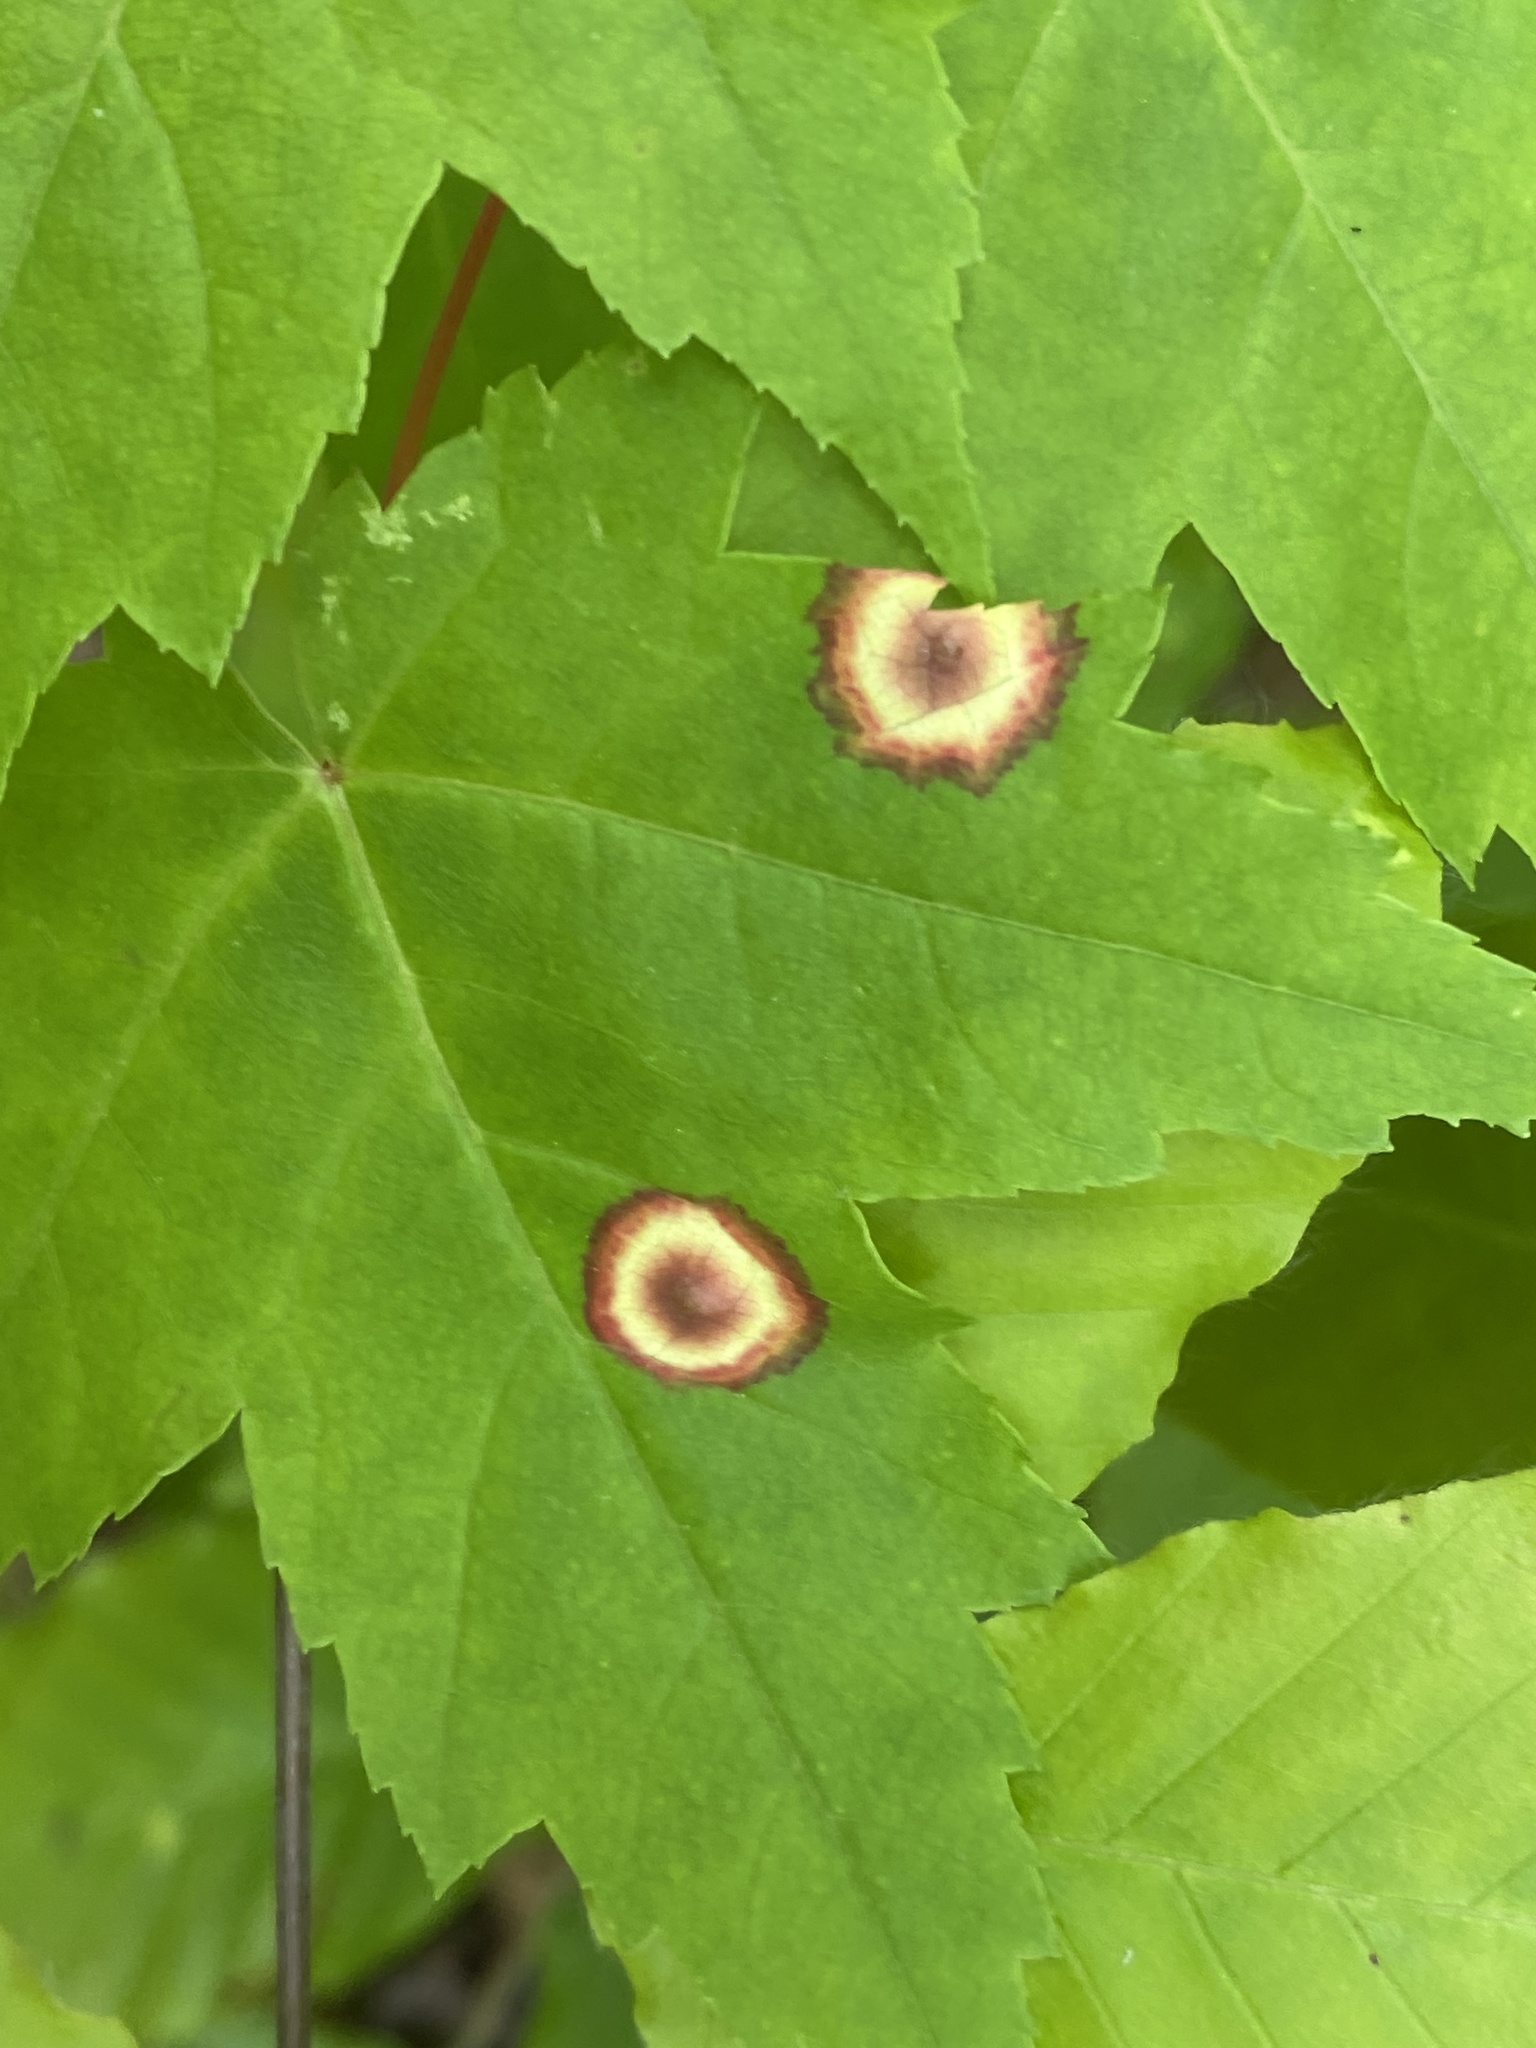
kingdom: Animalia
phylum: Arthropoda
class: Insecta
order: Diptera
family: Cecidomyiidae
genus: Acericecis
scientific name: Acericecis ocellaris
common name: Ocellate gall midge
